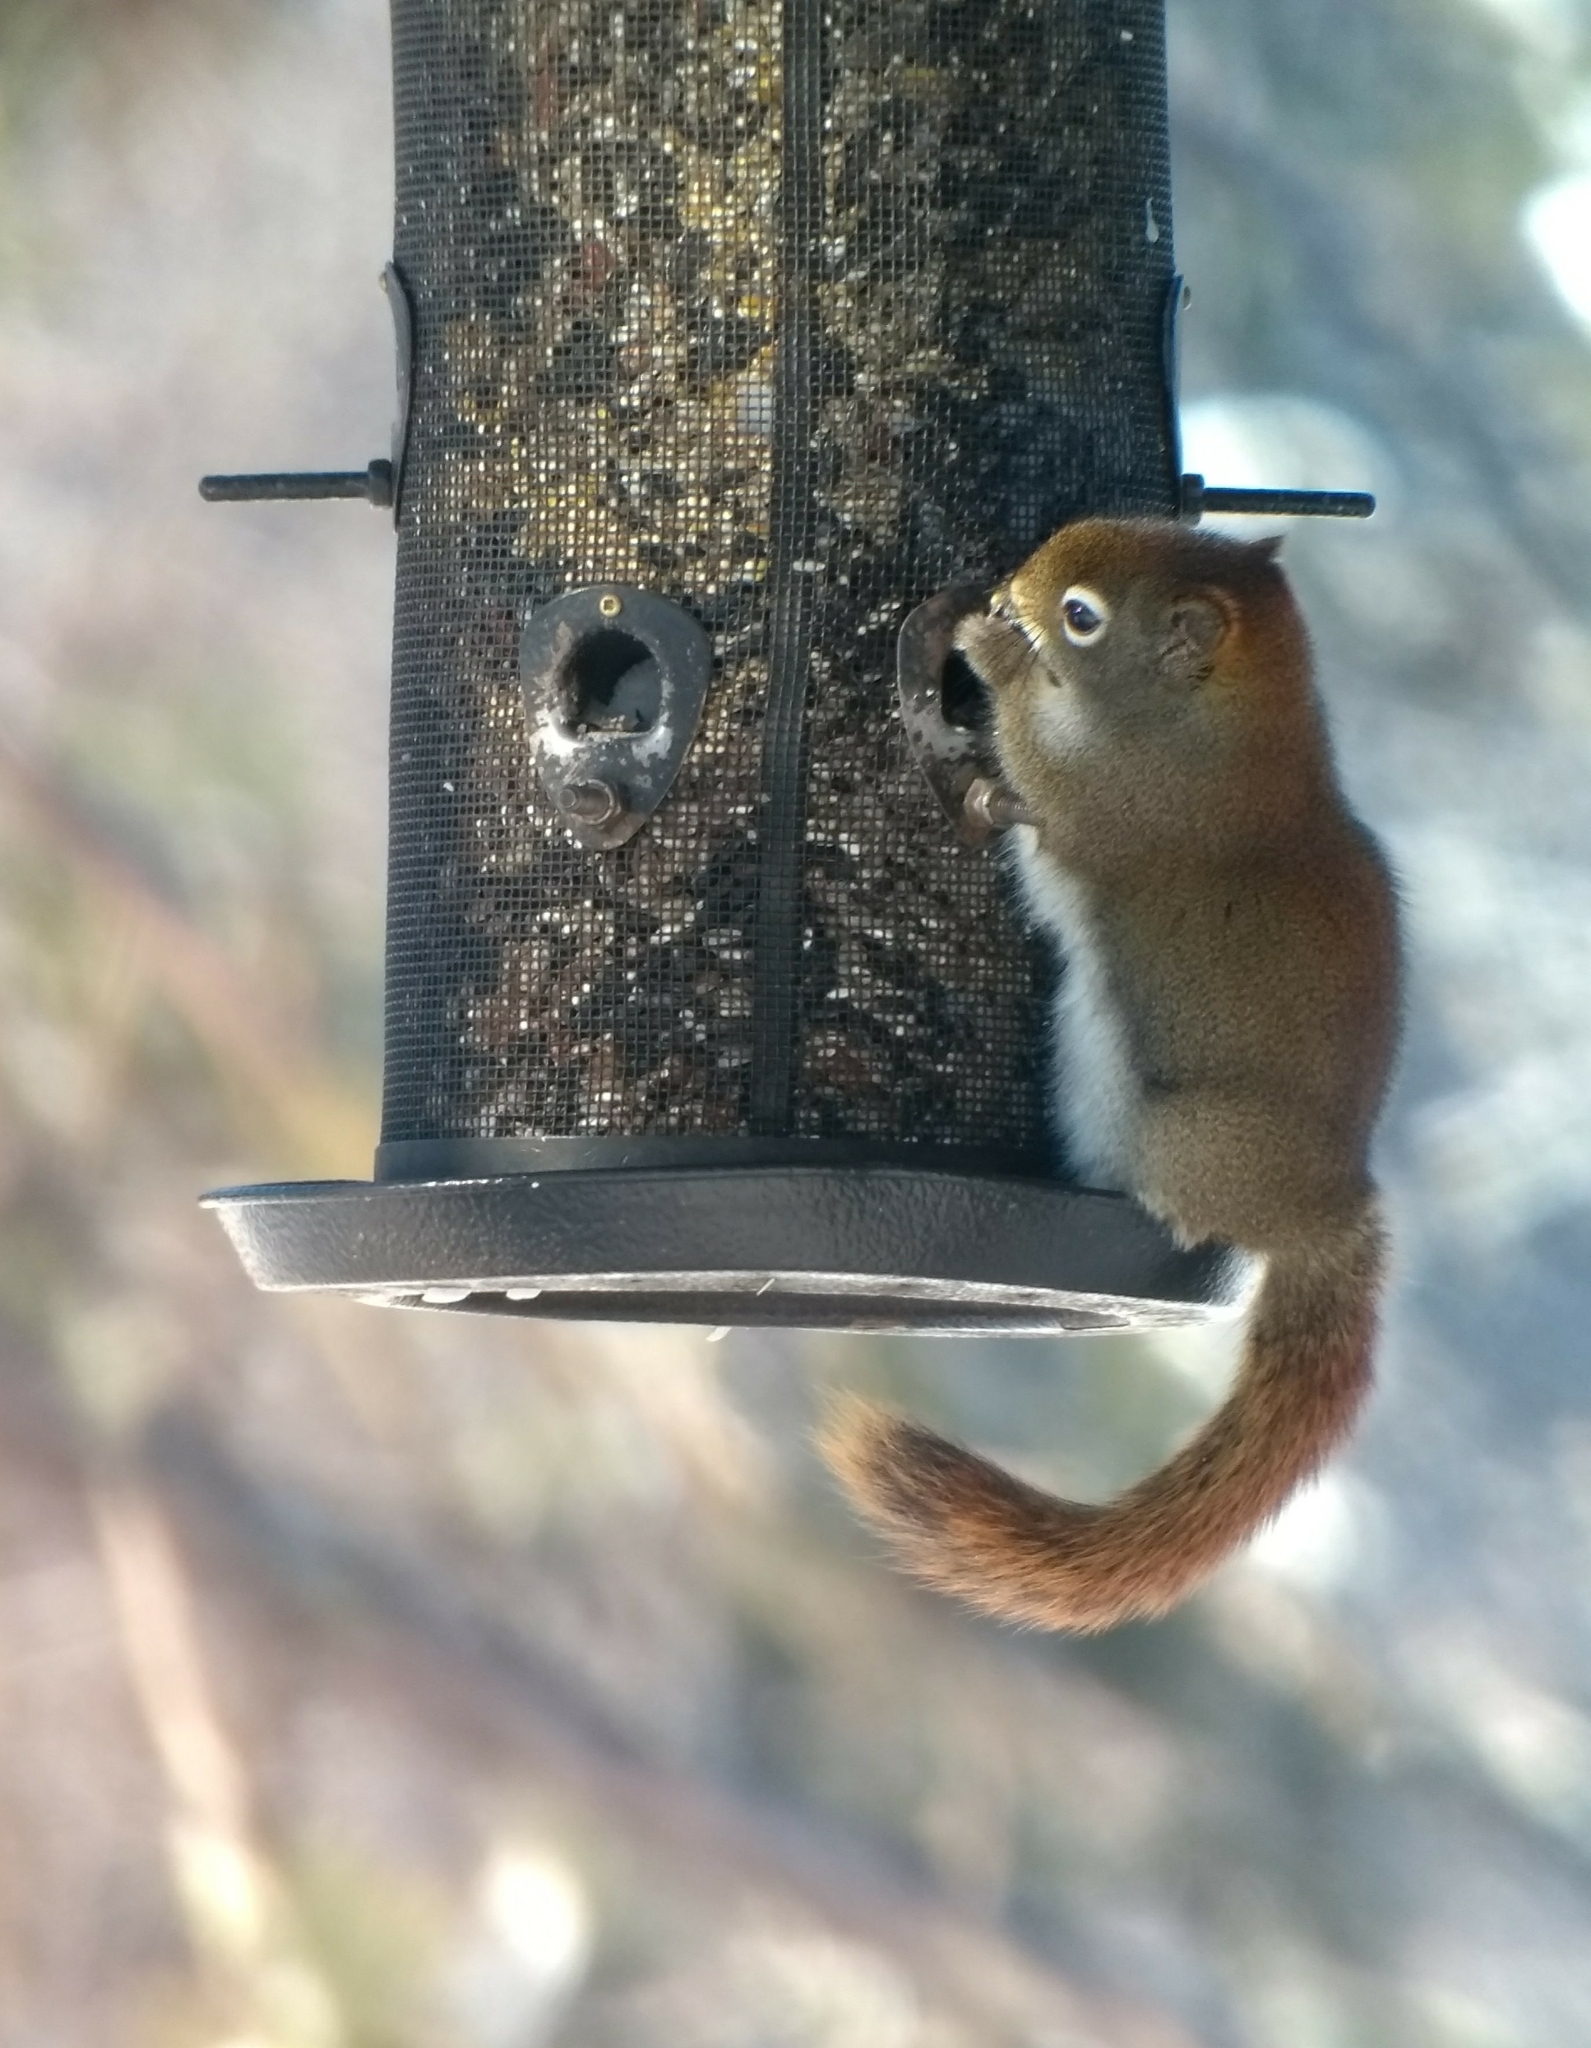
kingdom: Animalia
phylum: Chordata
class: Mammalia
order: Rodentia
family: Sciuridae
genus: Tamiasciurus
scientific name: Tamiasciurus hudsonicus
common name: Red squirrel
